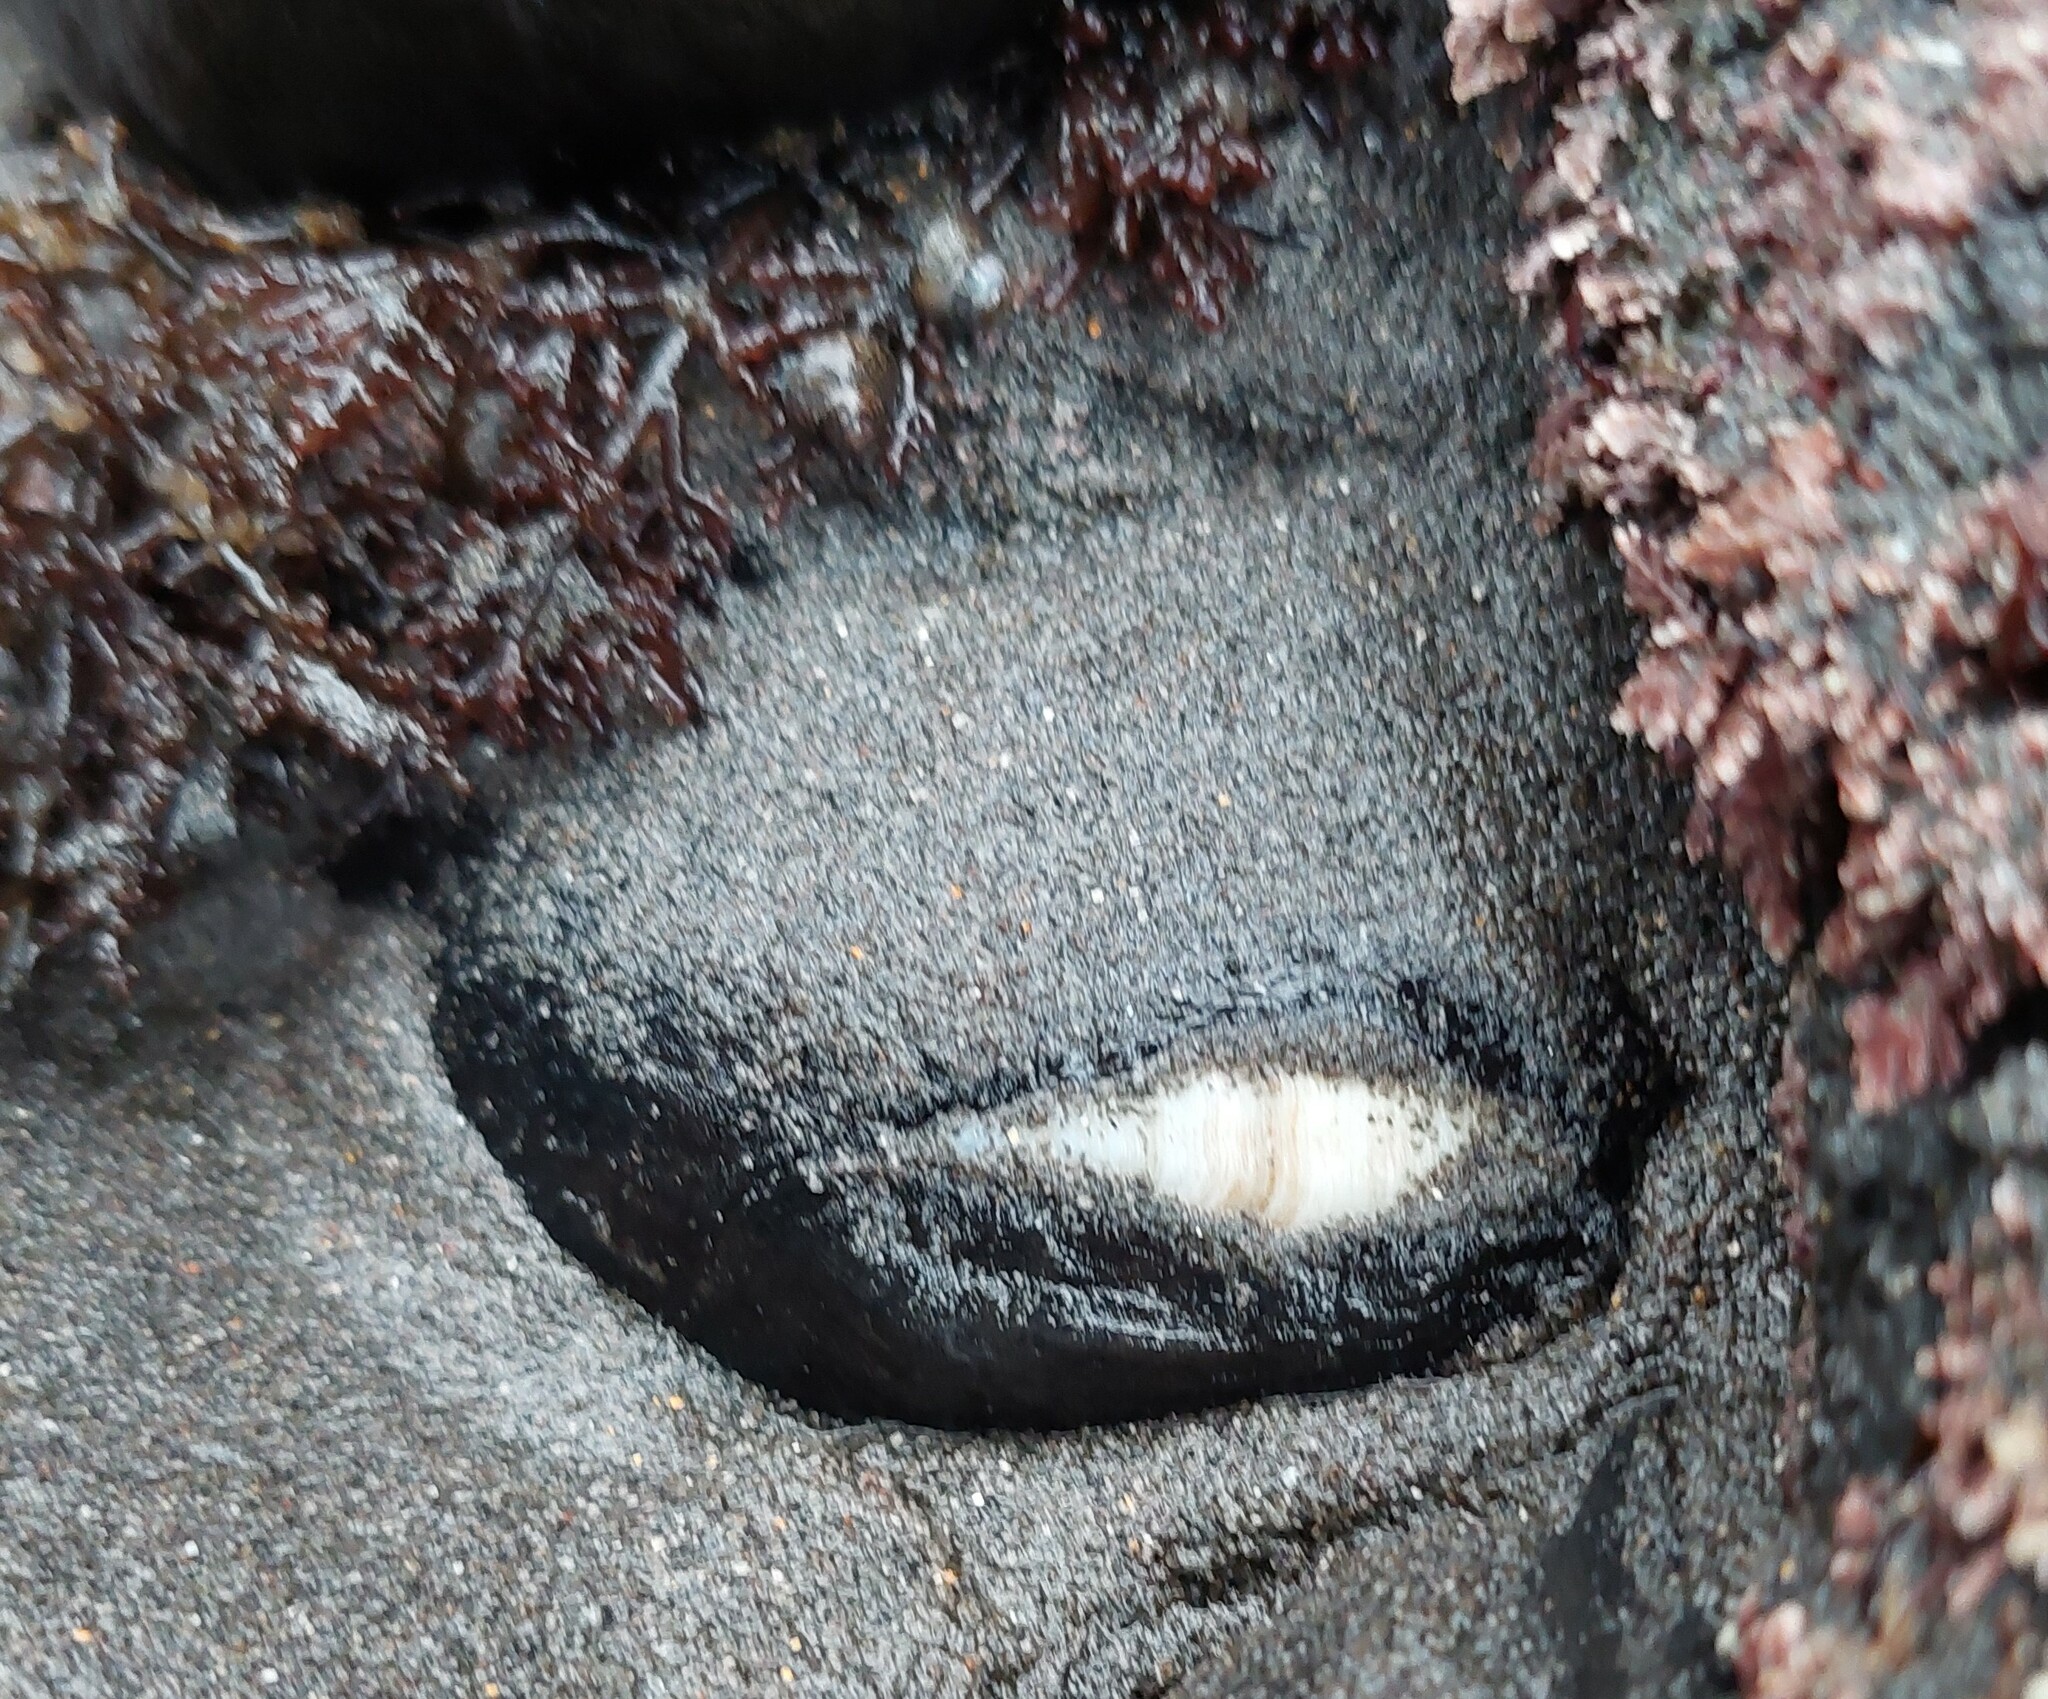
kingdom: Animalia
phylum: Mollusca
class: Gastropoda
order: Lepetellida
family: Fissurellidae
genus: Scutus
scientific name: Scutus breviculus
